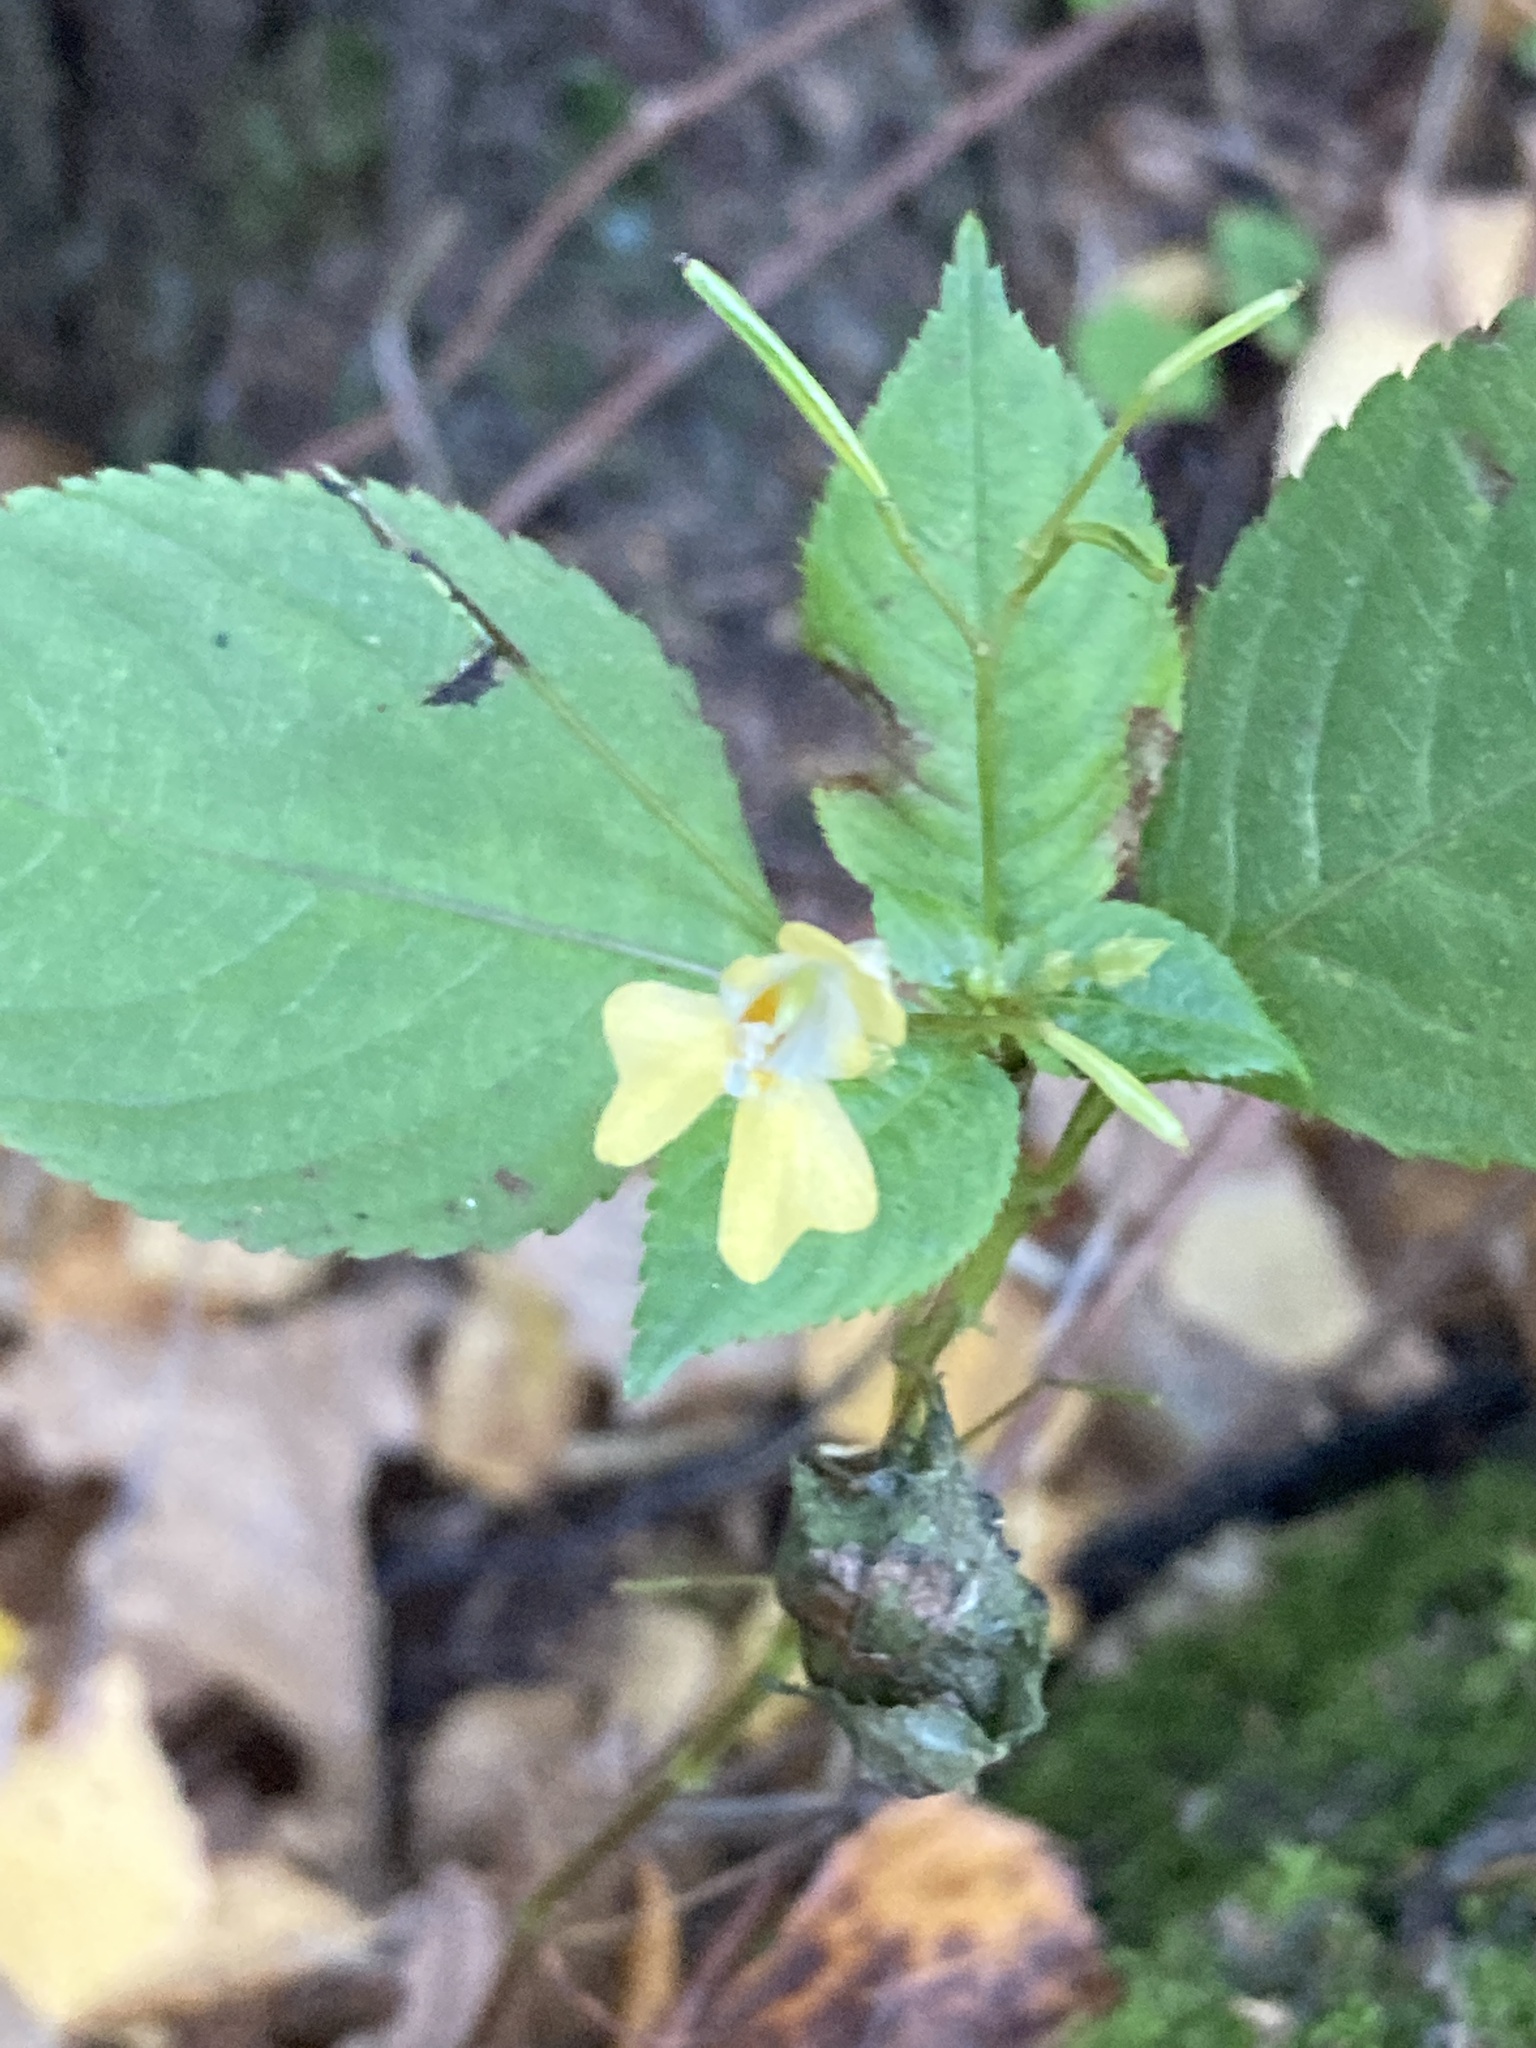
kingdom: Plantae
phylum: Tracheophyta
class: Magnoliopsida
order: Ericales
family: Balsaminaceae
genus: Impatiens
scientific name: Impatiens parviflora
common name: Small balsam
